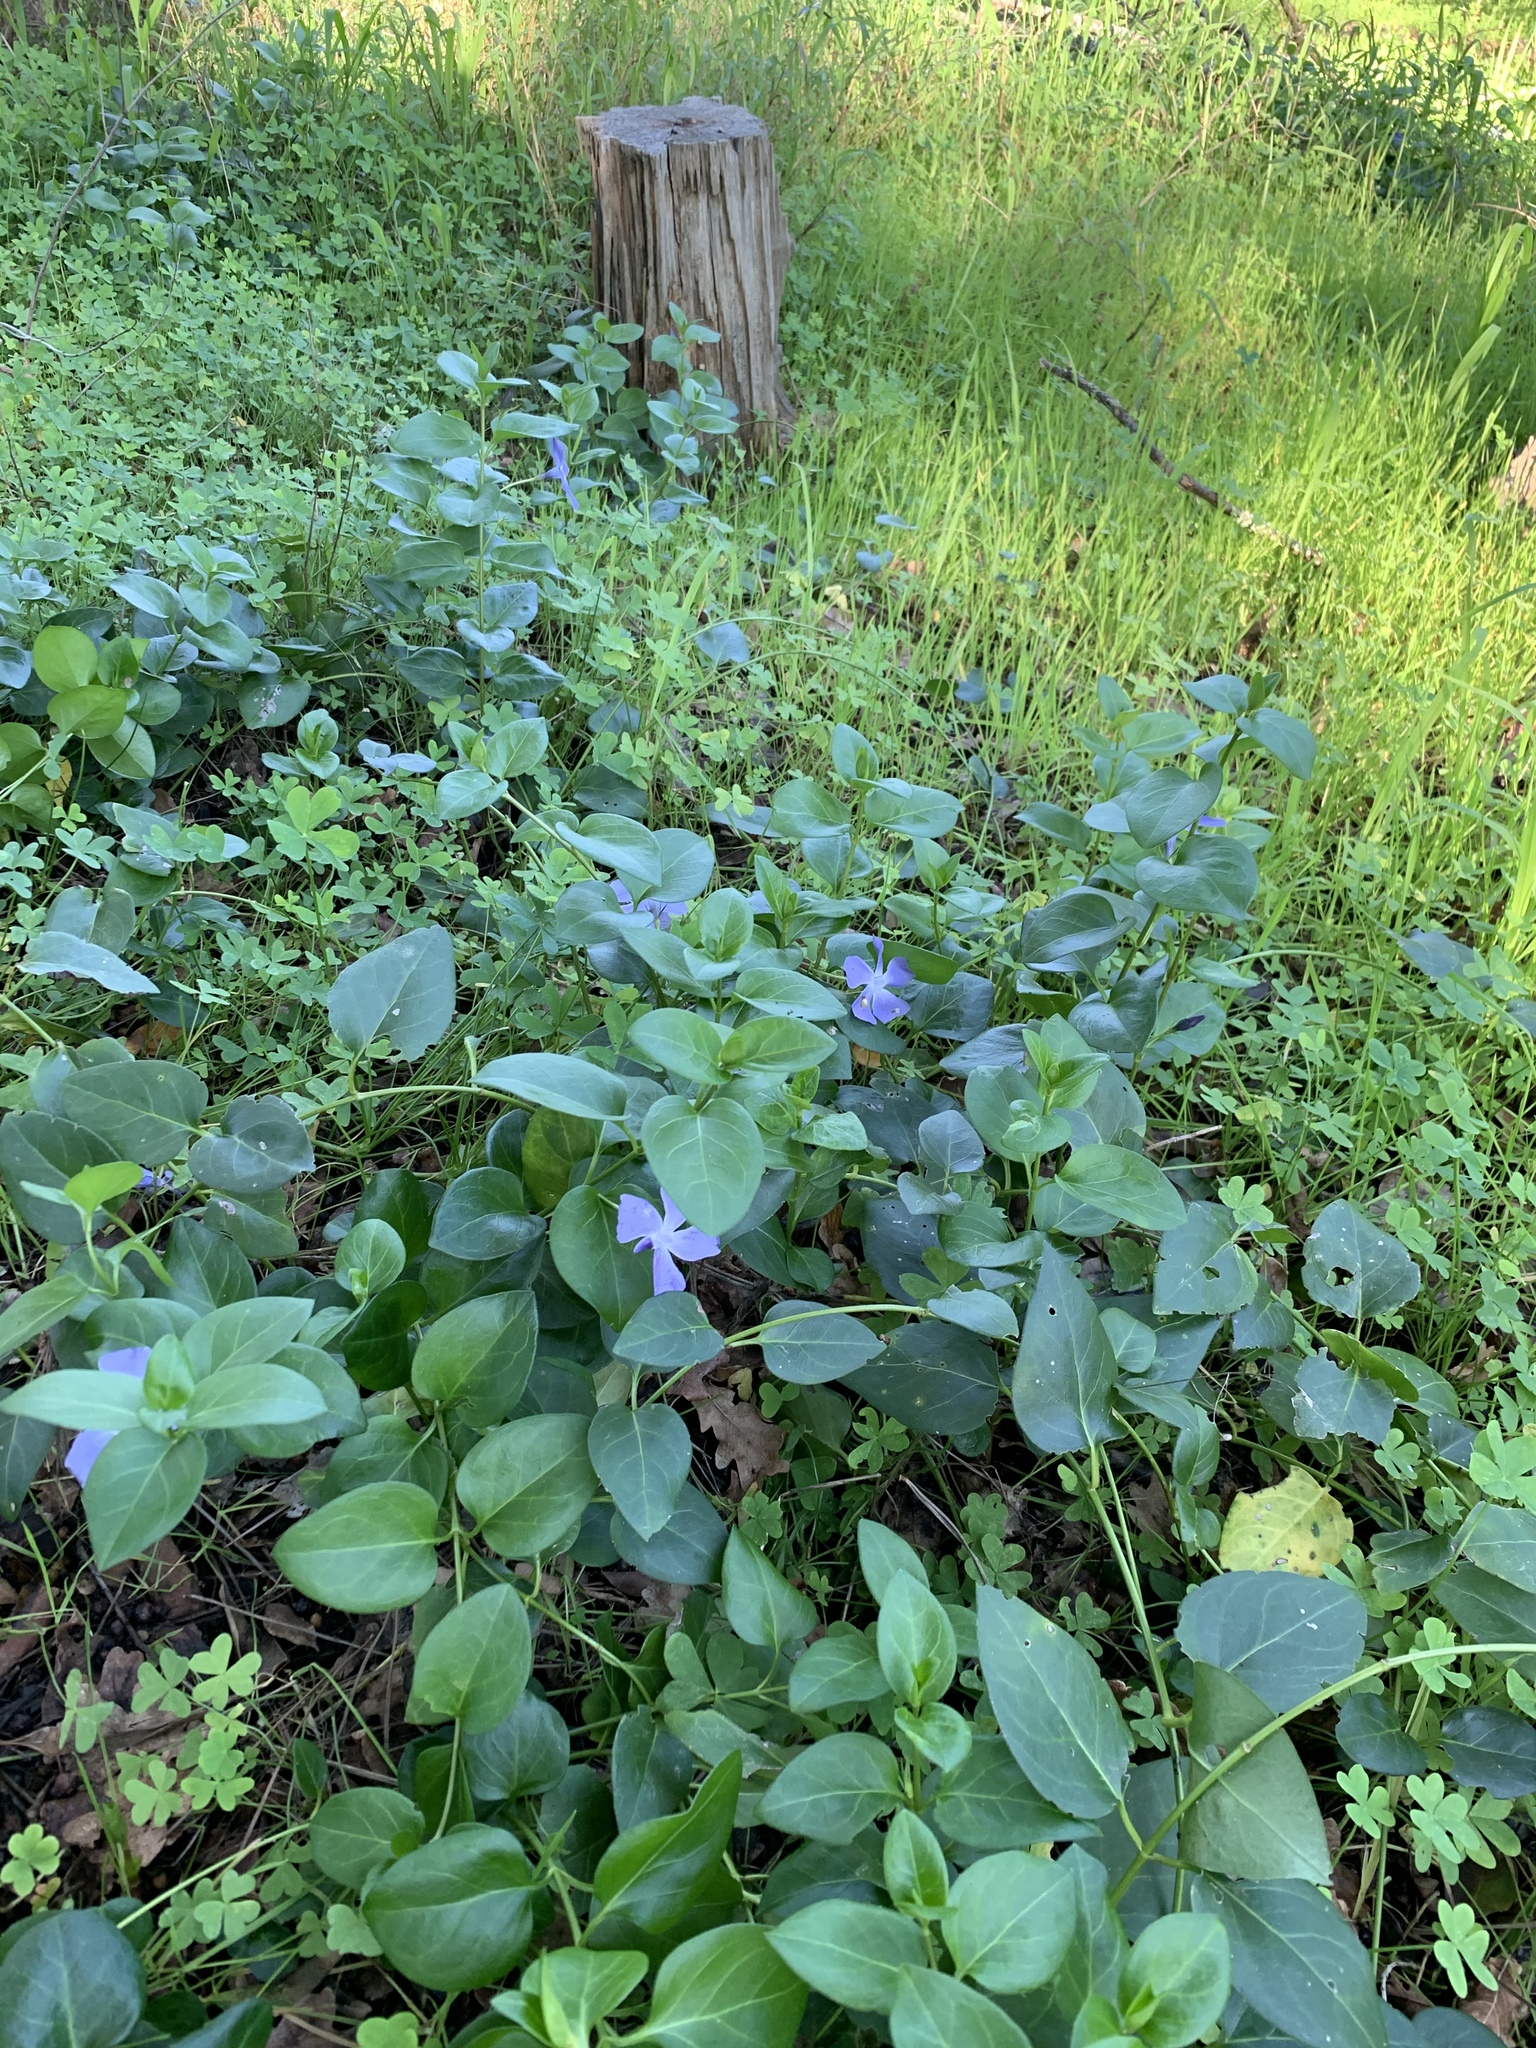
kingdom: Plantae
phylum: Tracheophyta
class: Magnoliopsida
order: Gentianales
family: Apocynaceae
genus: Vinca
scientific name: Vinca major
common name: Greater periwinkle
